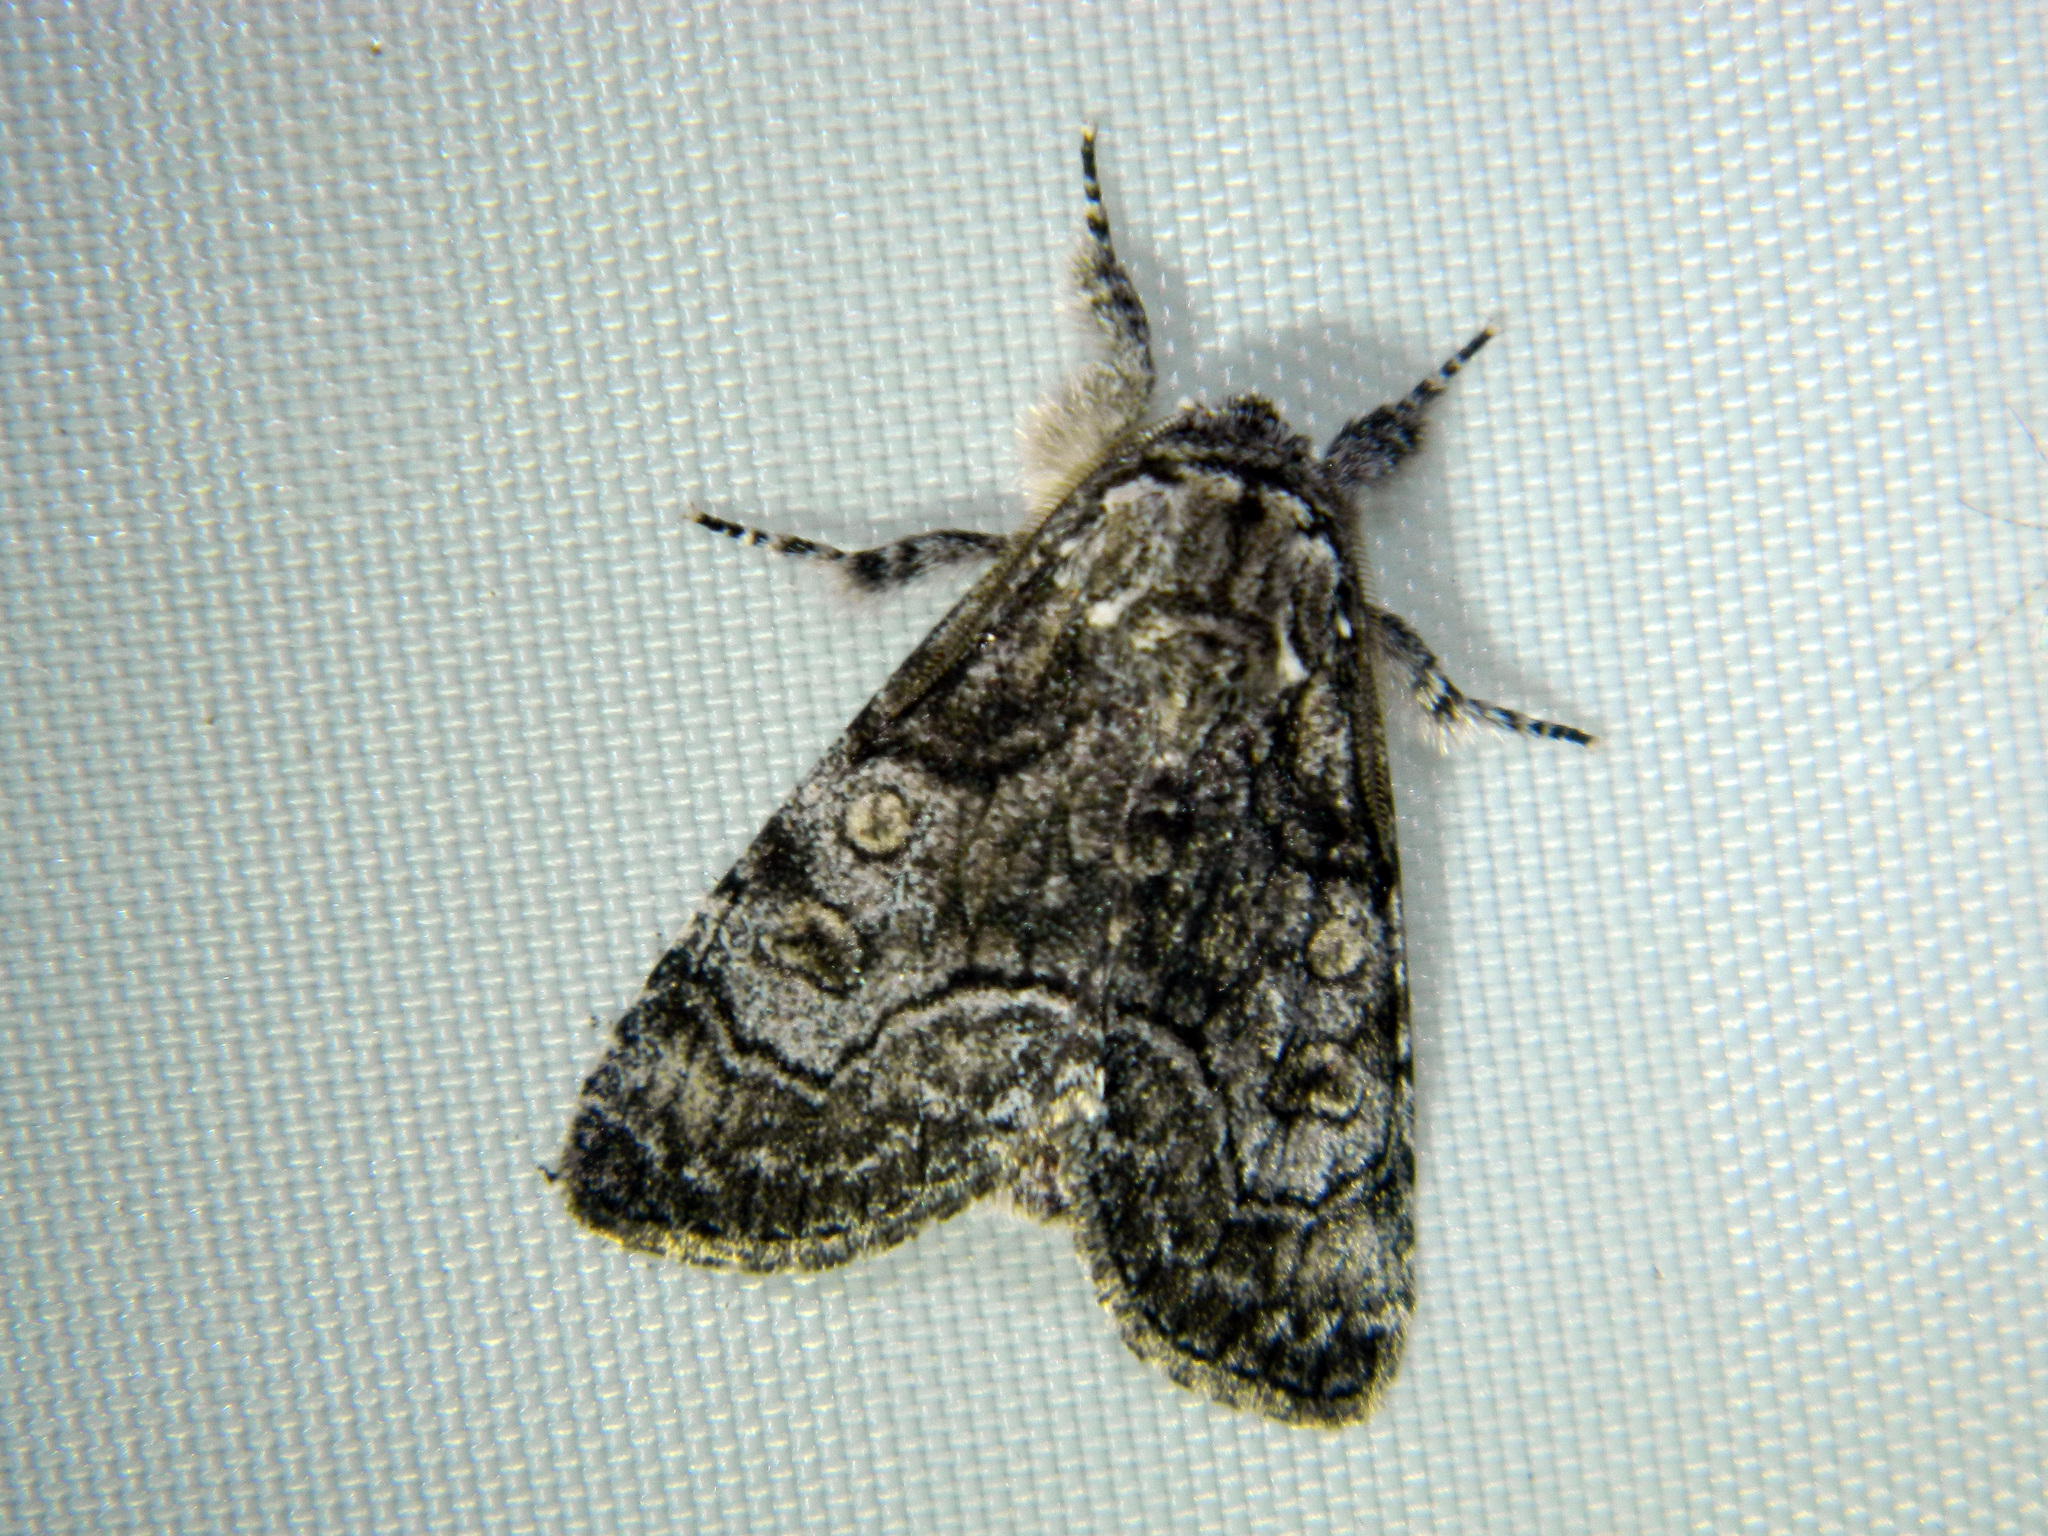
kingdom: Animalia
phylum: Arthropoda
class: Insecta
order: Lepidoptera
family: Noctuidae
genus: Raphia
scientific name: Raphia frater
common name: Brother
